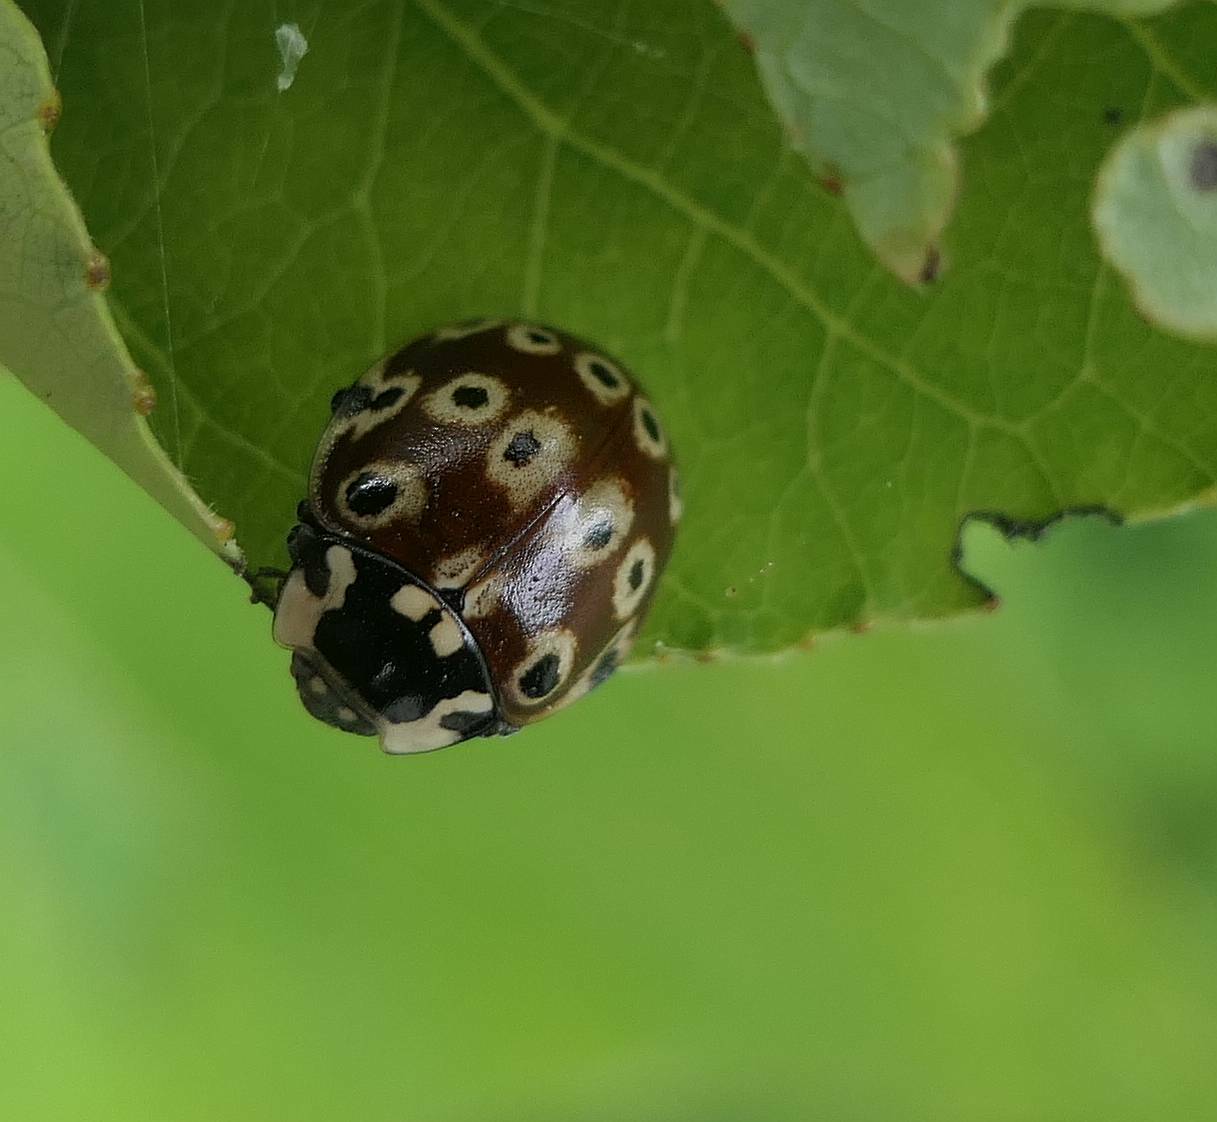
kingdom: Animalia
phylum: Arthropoda
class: Insecta
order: Coleoptera
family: Coccinellidae
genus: Anatis
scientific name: Anatis mali
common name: Eye-spotted lady beetle
